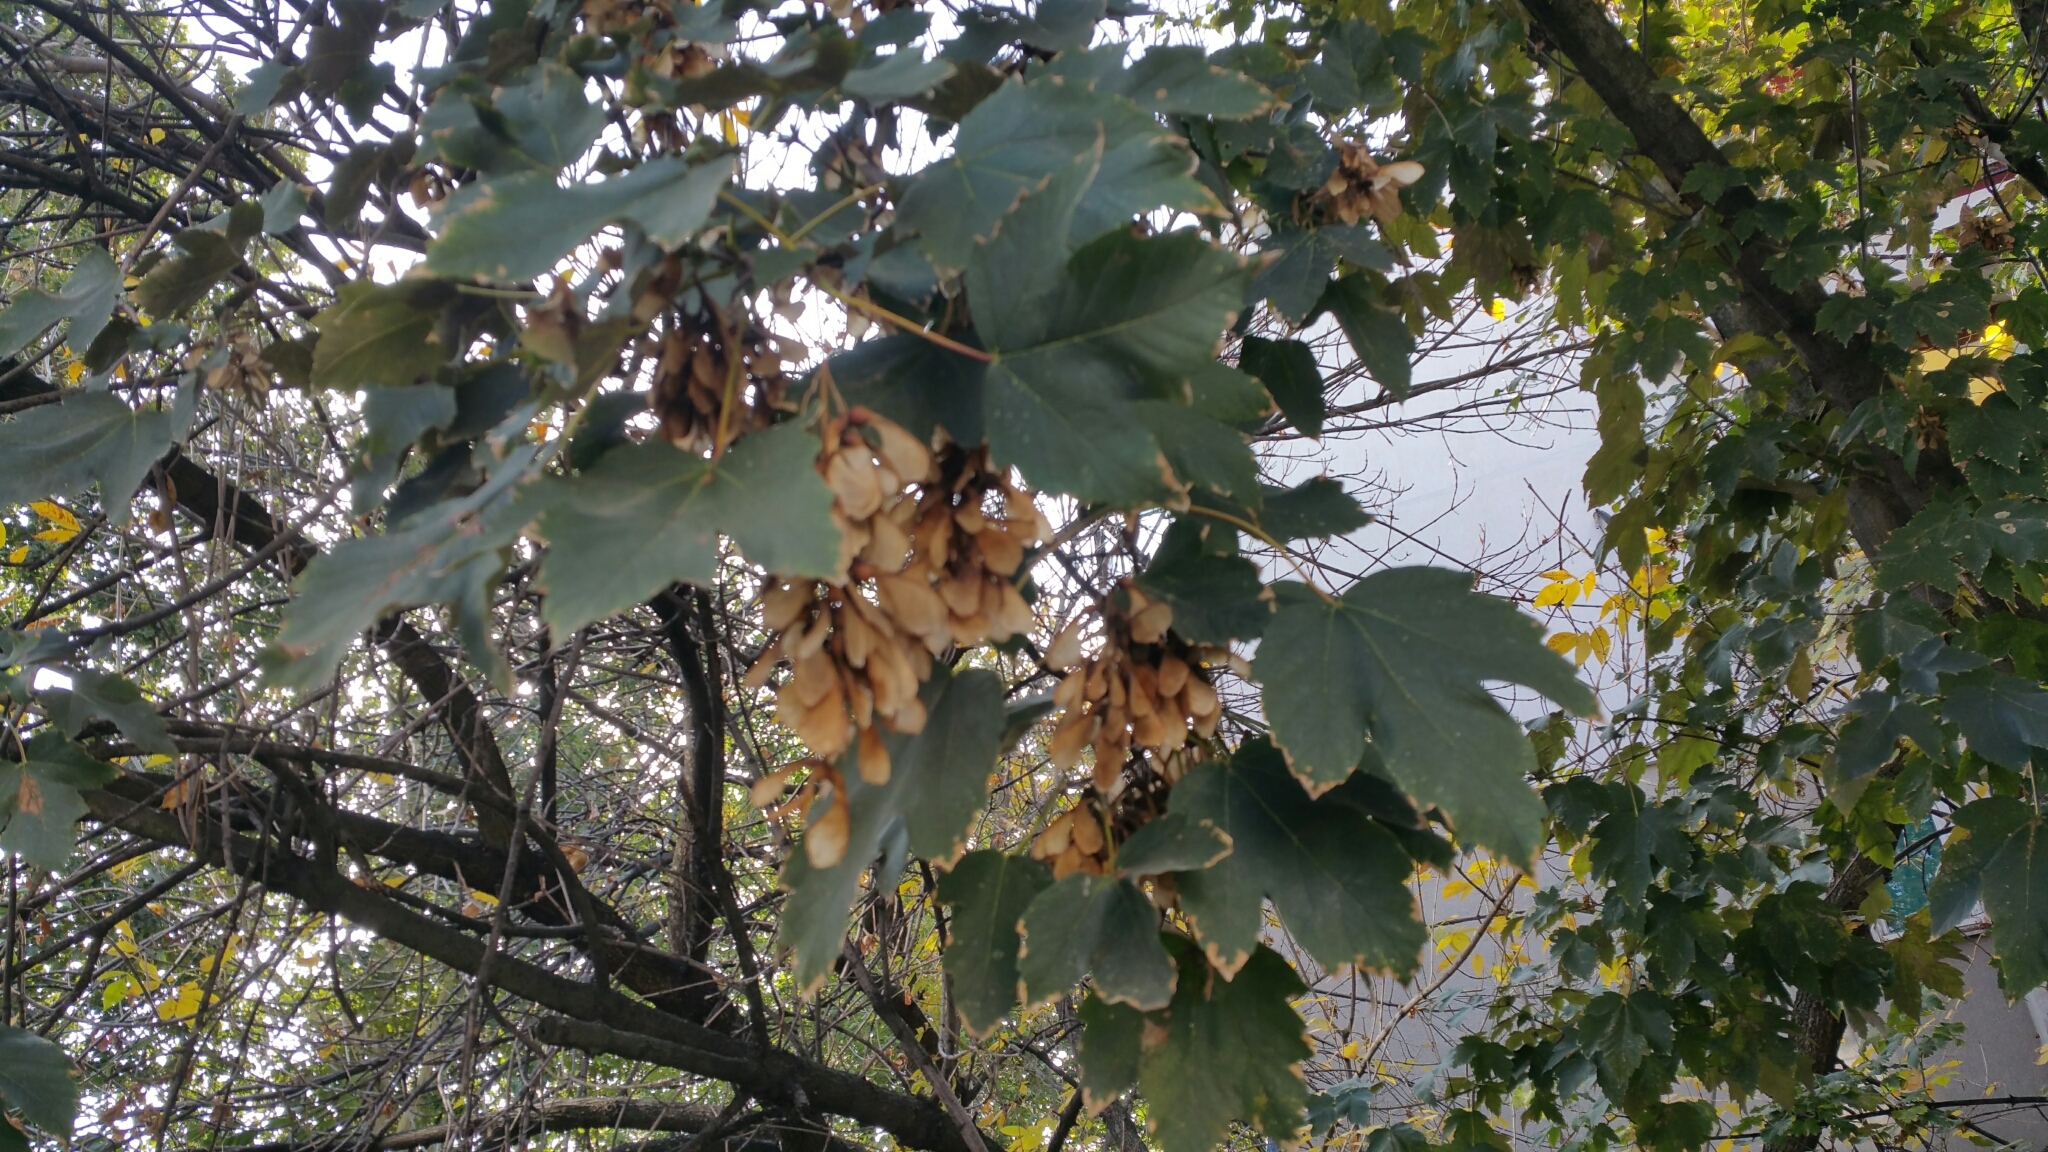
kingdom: Plantae
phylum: Tracheophyta
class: Magnoliopsida
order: Sapindales
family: Sapindaceae
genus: Acer
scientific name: Acer pseudoplatanus
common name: Sycamore
